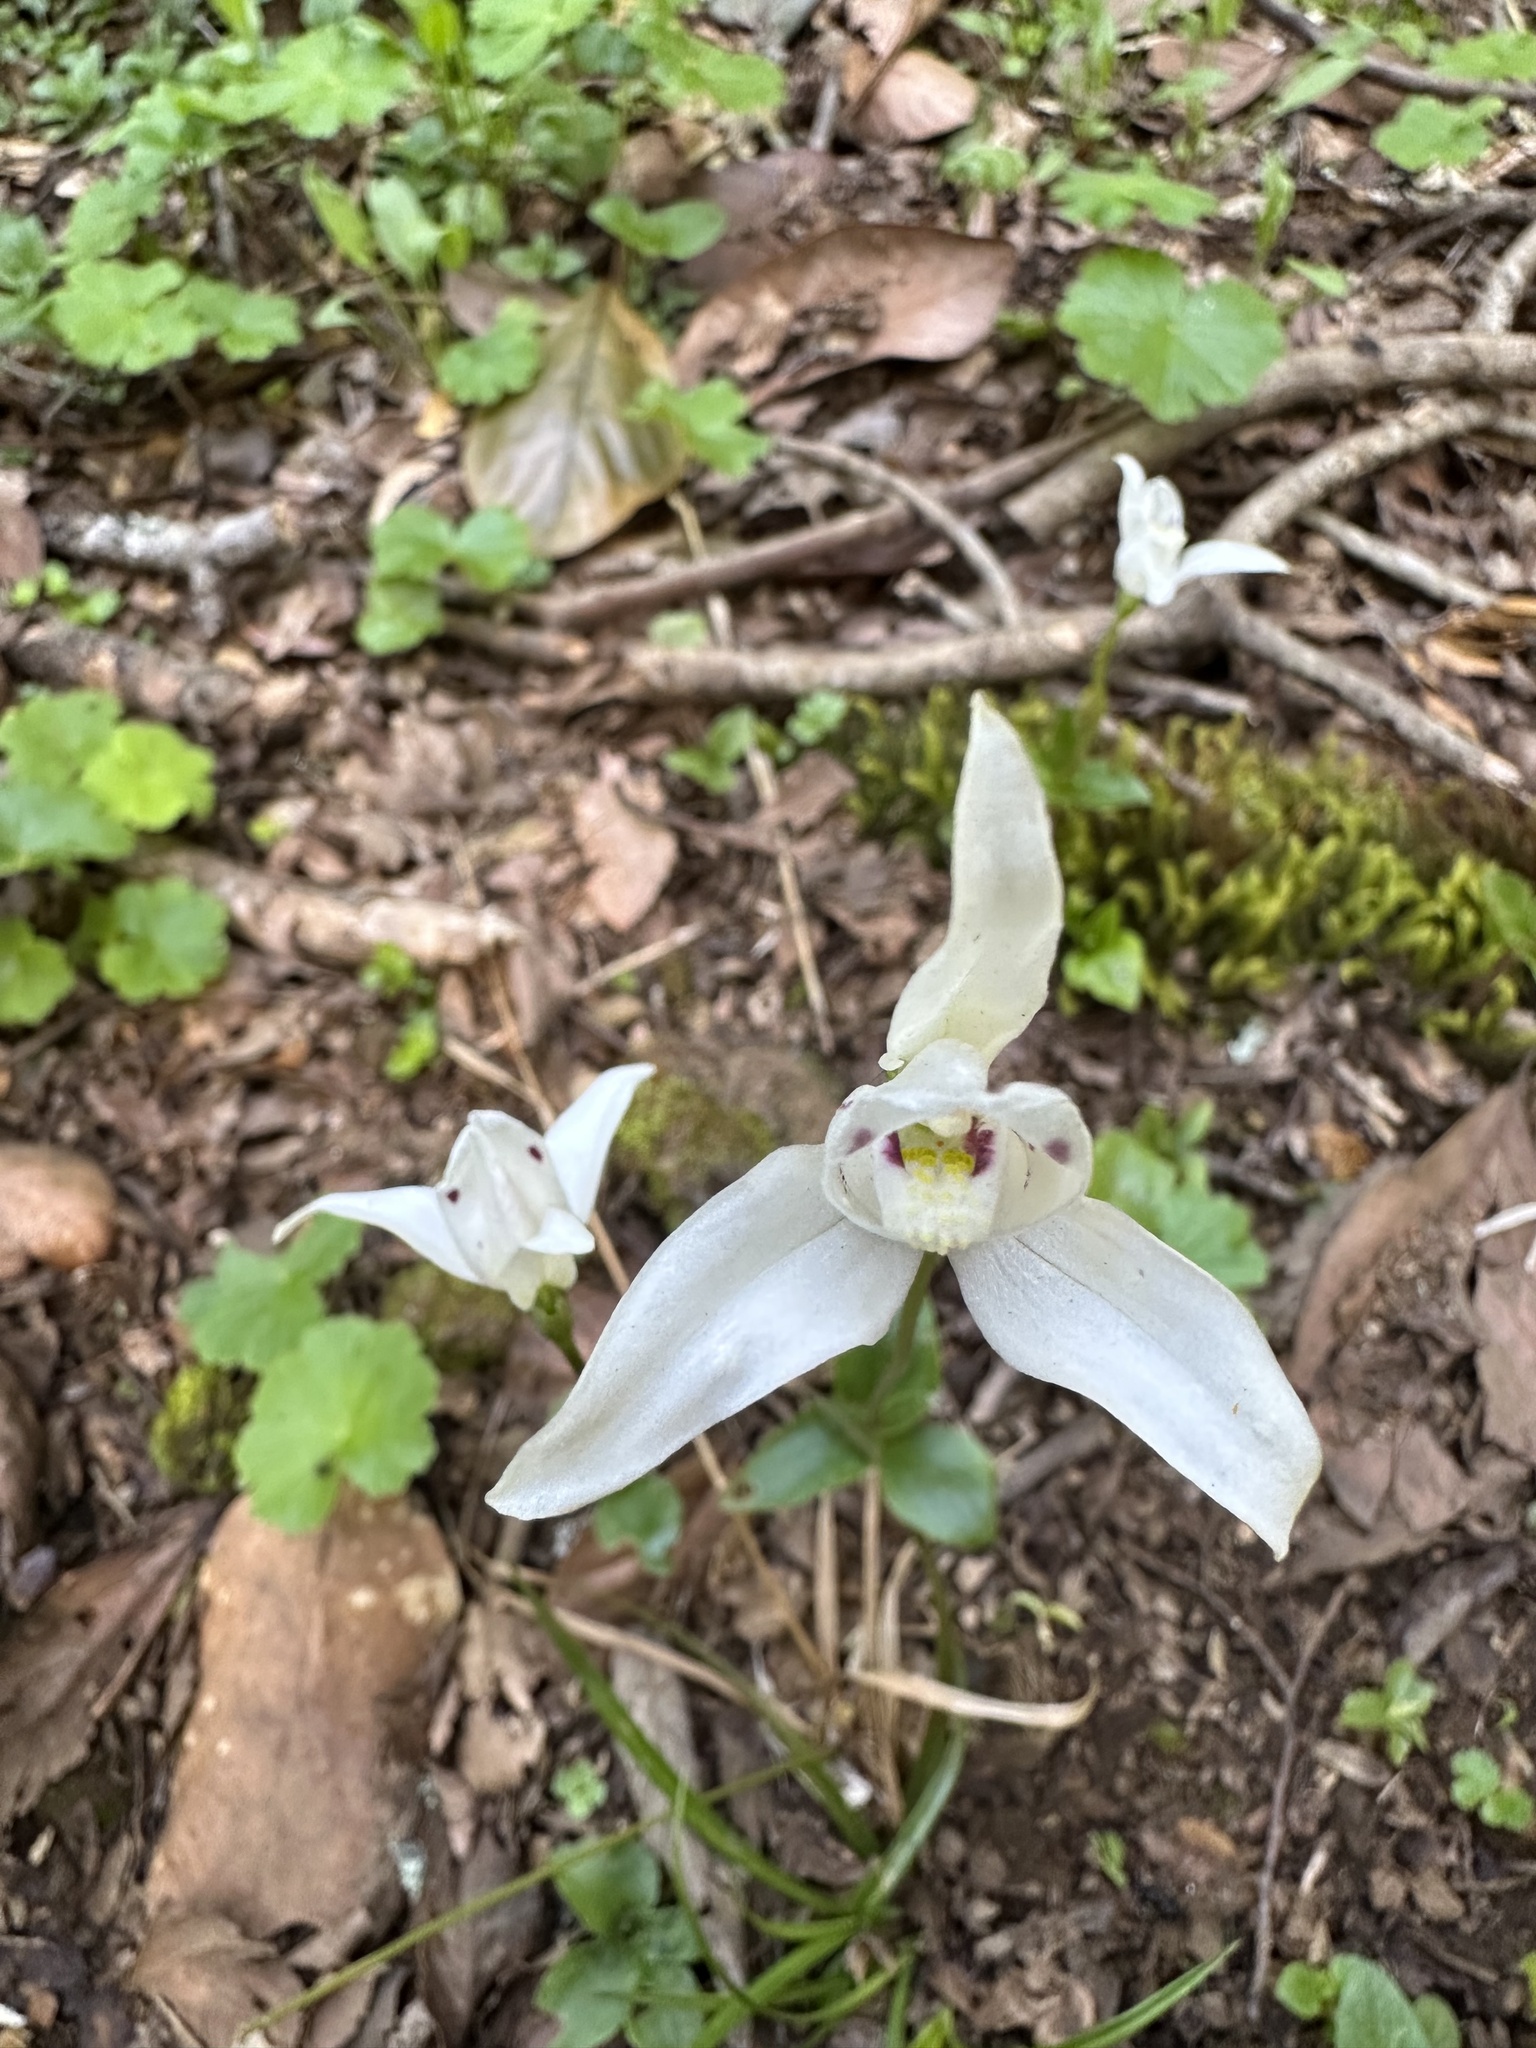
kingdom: Plantae
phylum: Tracheophyta
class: Liliopsida
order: Asparagales
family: Orchidaceae
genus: Codonorchis
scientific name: Codonorchis lessonii
